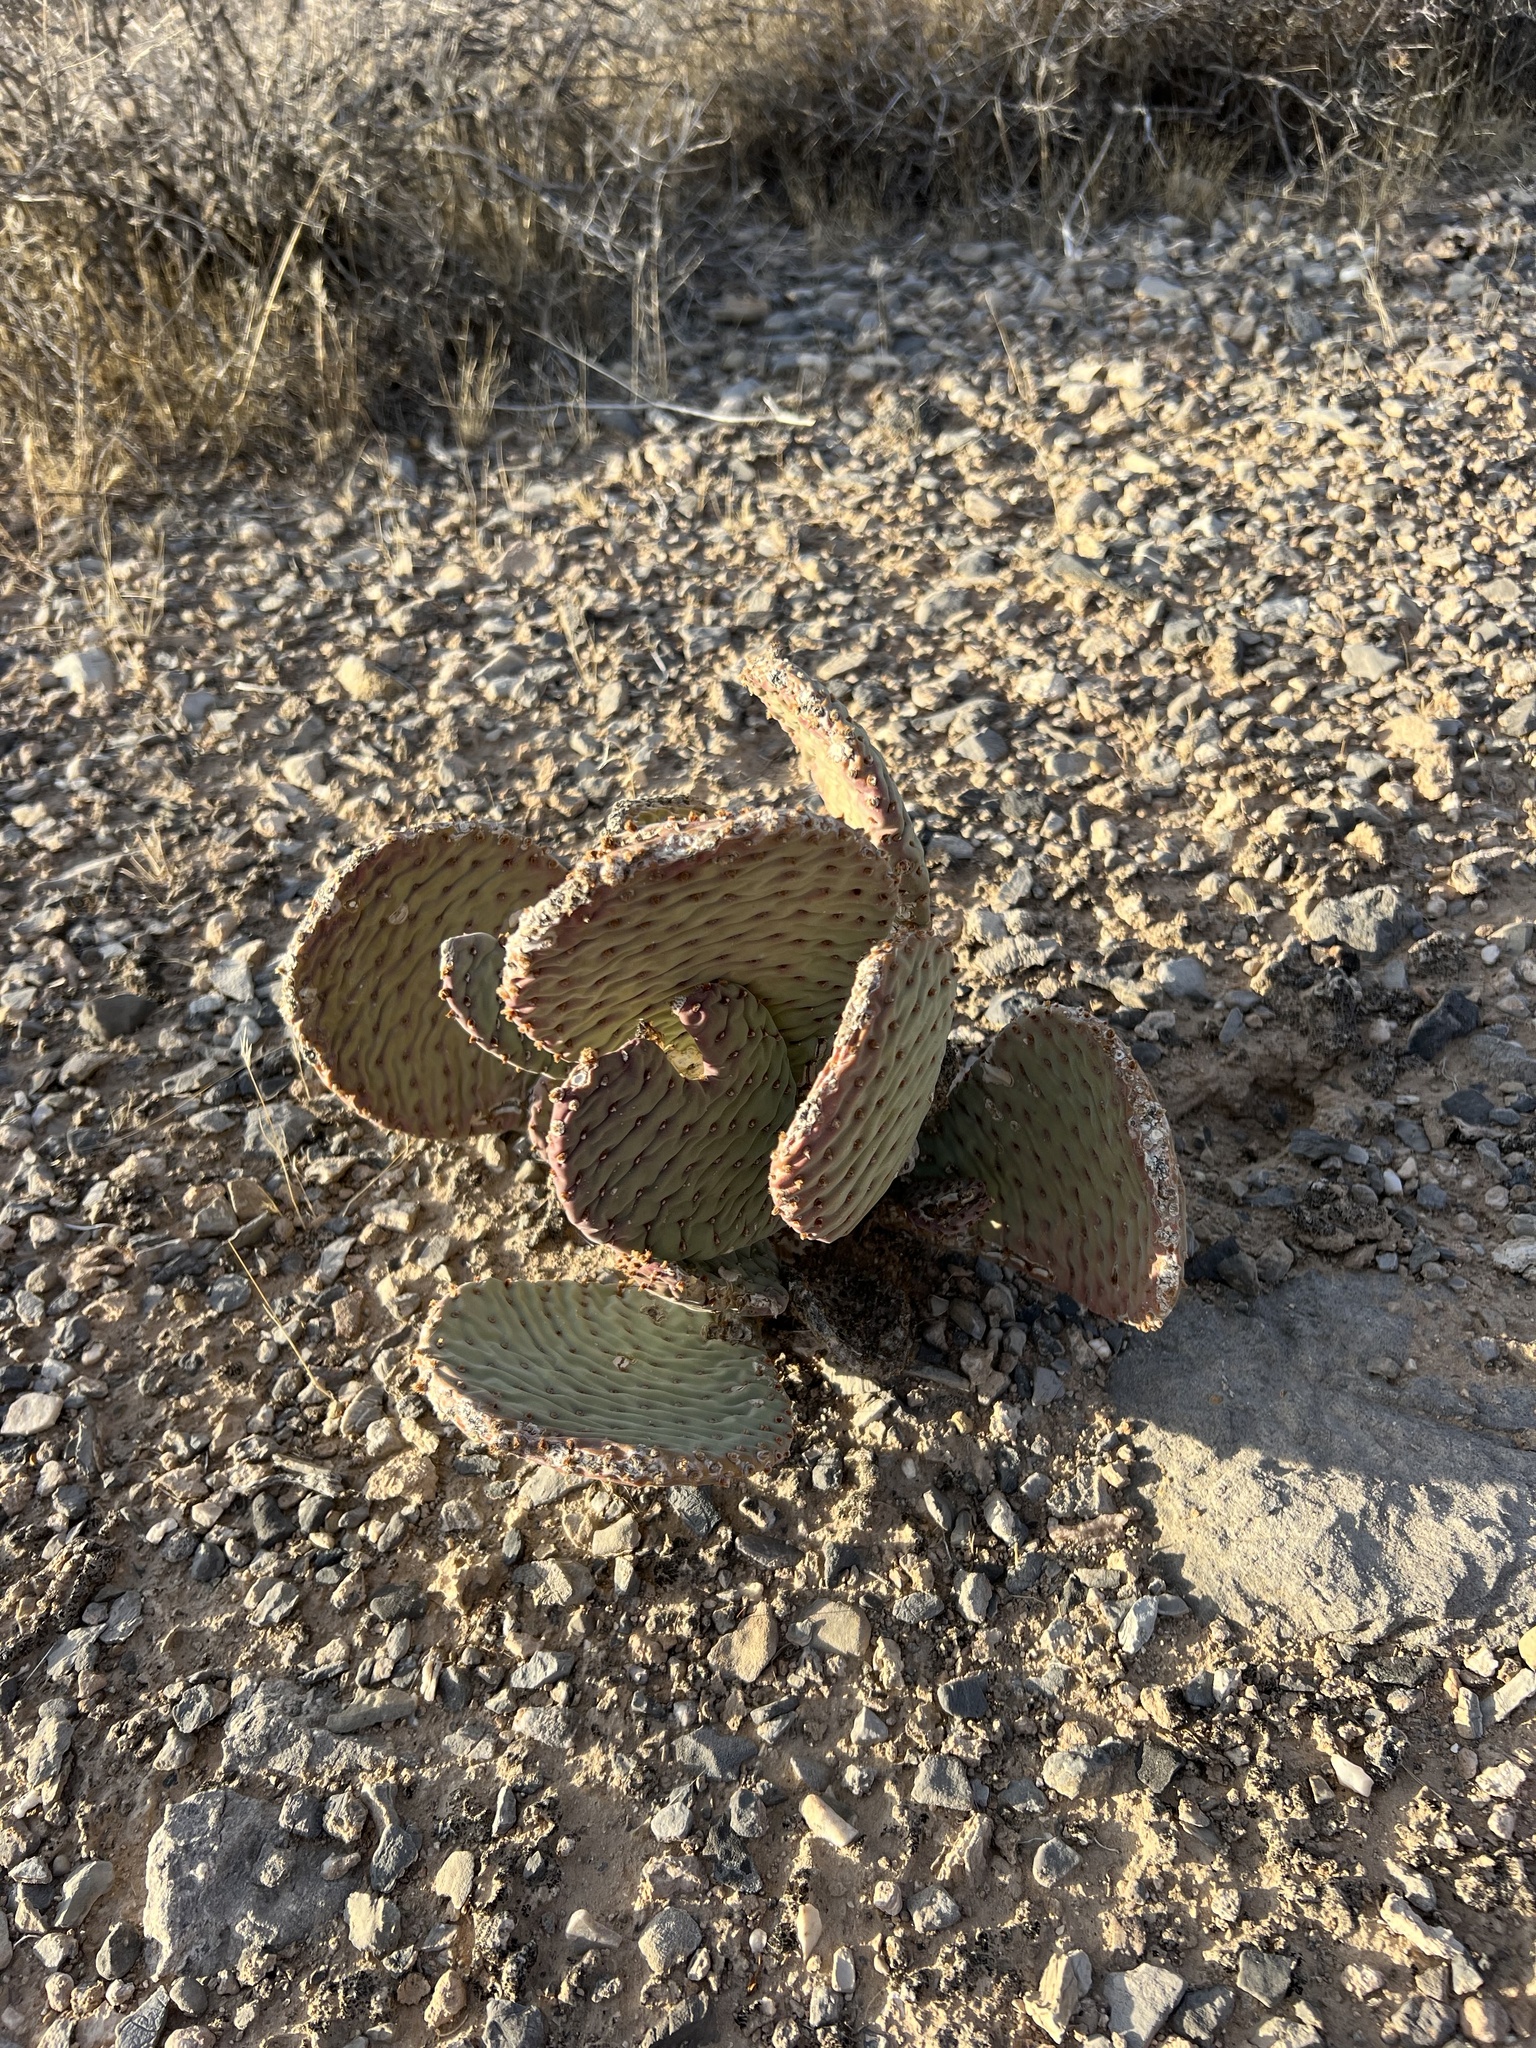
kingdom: Plantae
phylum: Tracheophyta
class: Magnoliopsida
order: Caryophyllales
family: Cactaceae
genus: Opuntia
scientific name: Opuntia basilaris
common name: Beavertail prickly-pear
